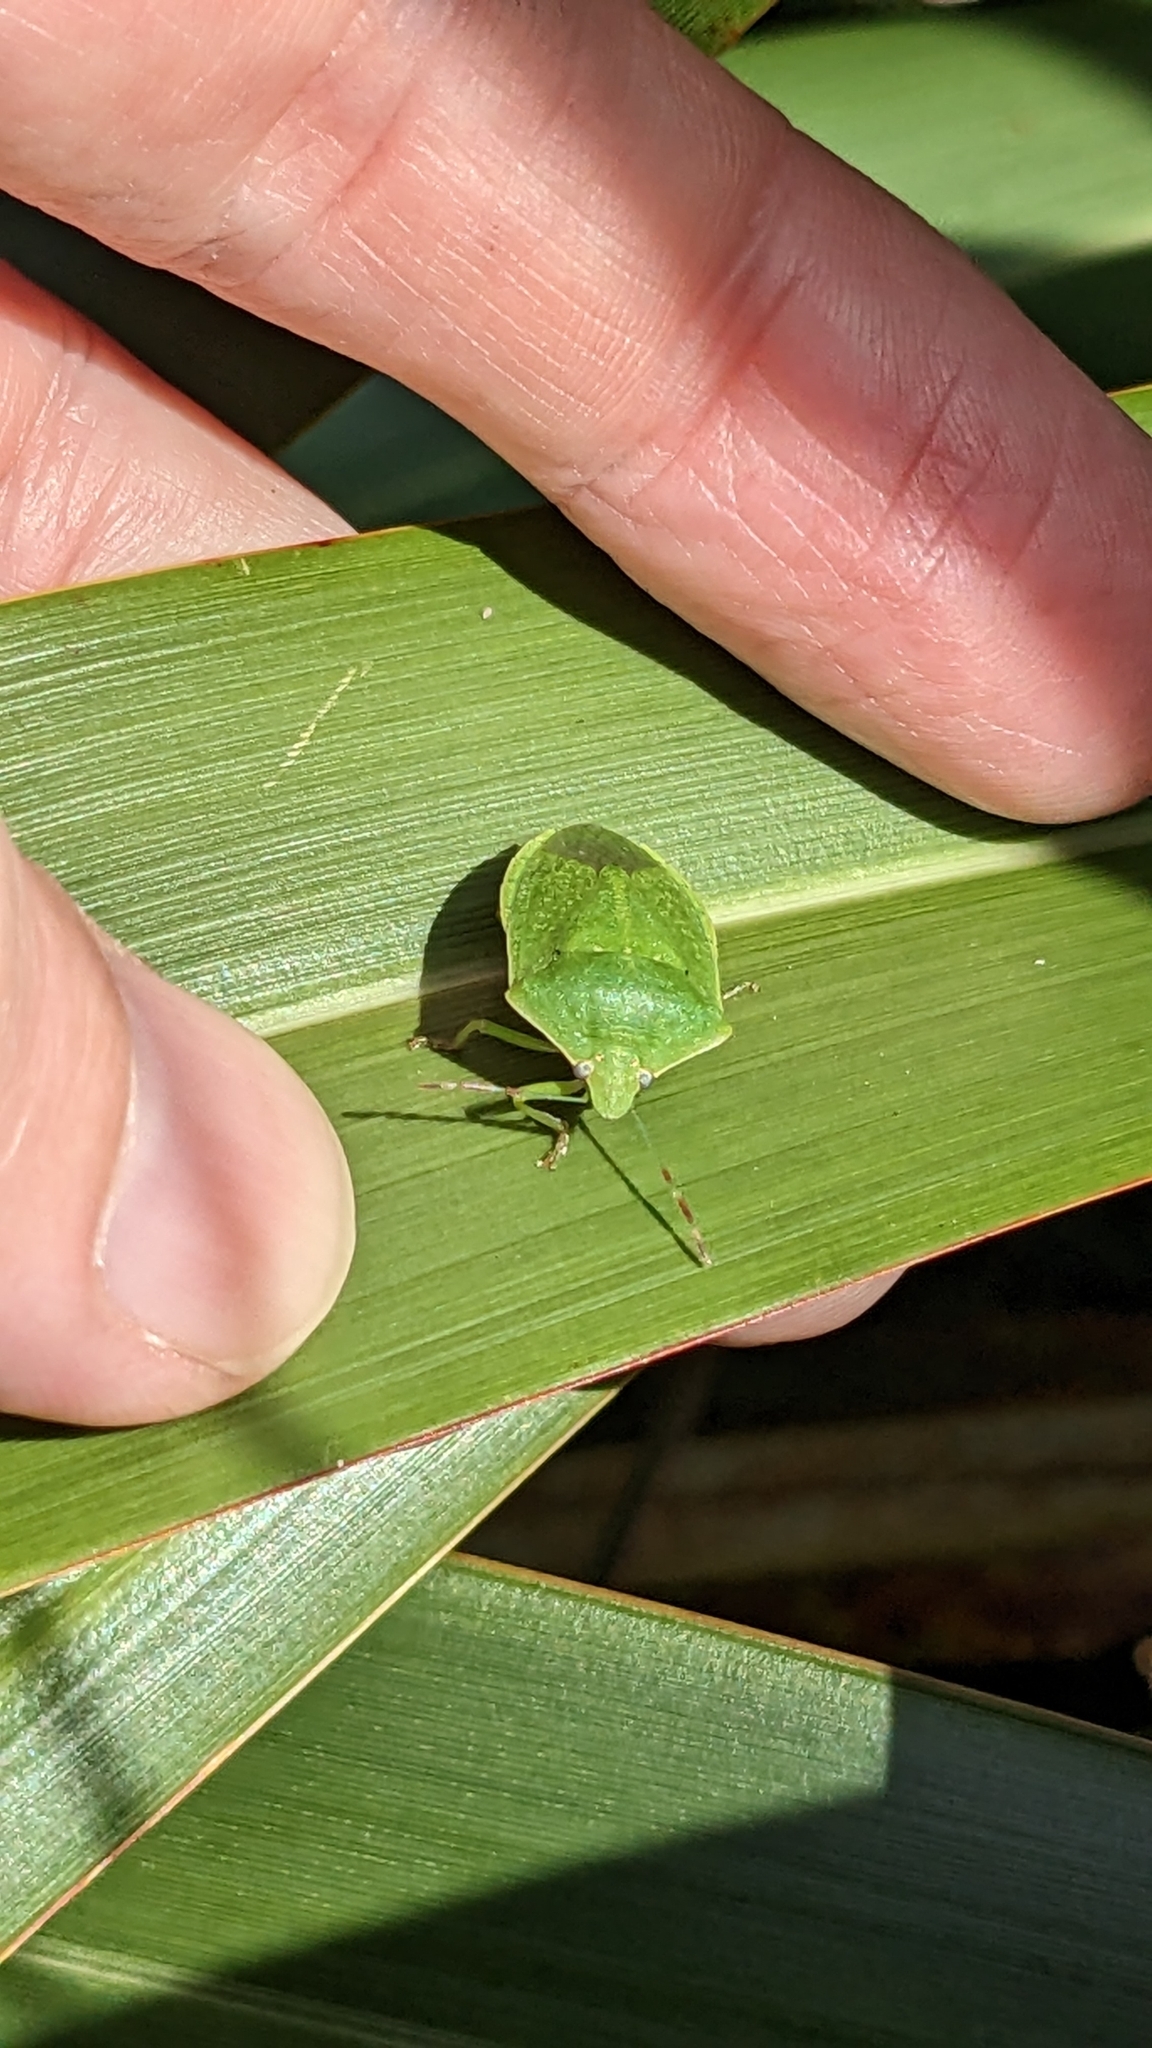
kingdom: Animalia
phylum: Arthropoda
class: Insecta
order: Hemiptera
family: Pentatomidae
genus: Nezara
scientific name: Nezara viridula
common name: Southern green stink bug
